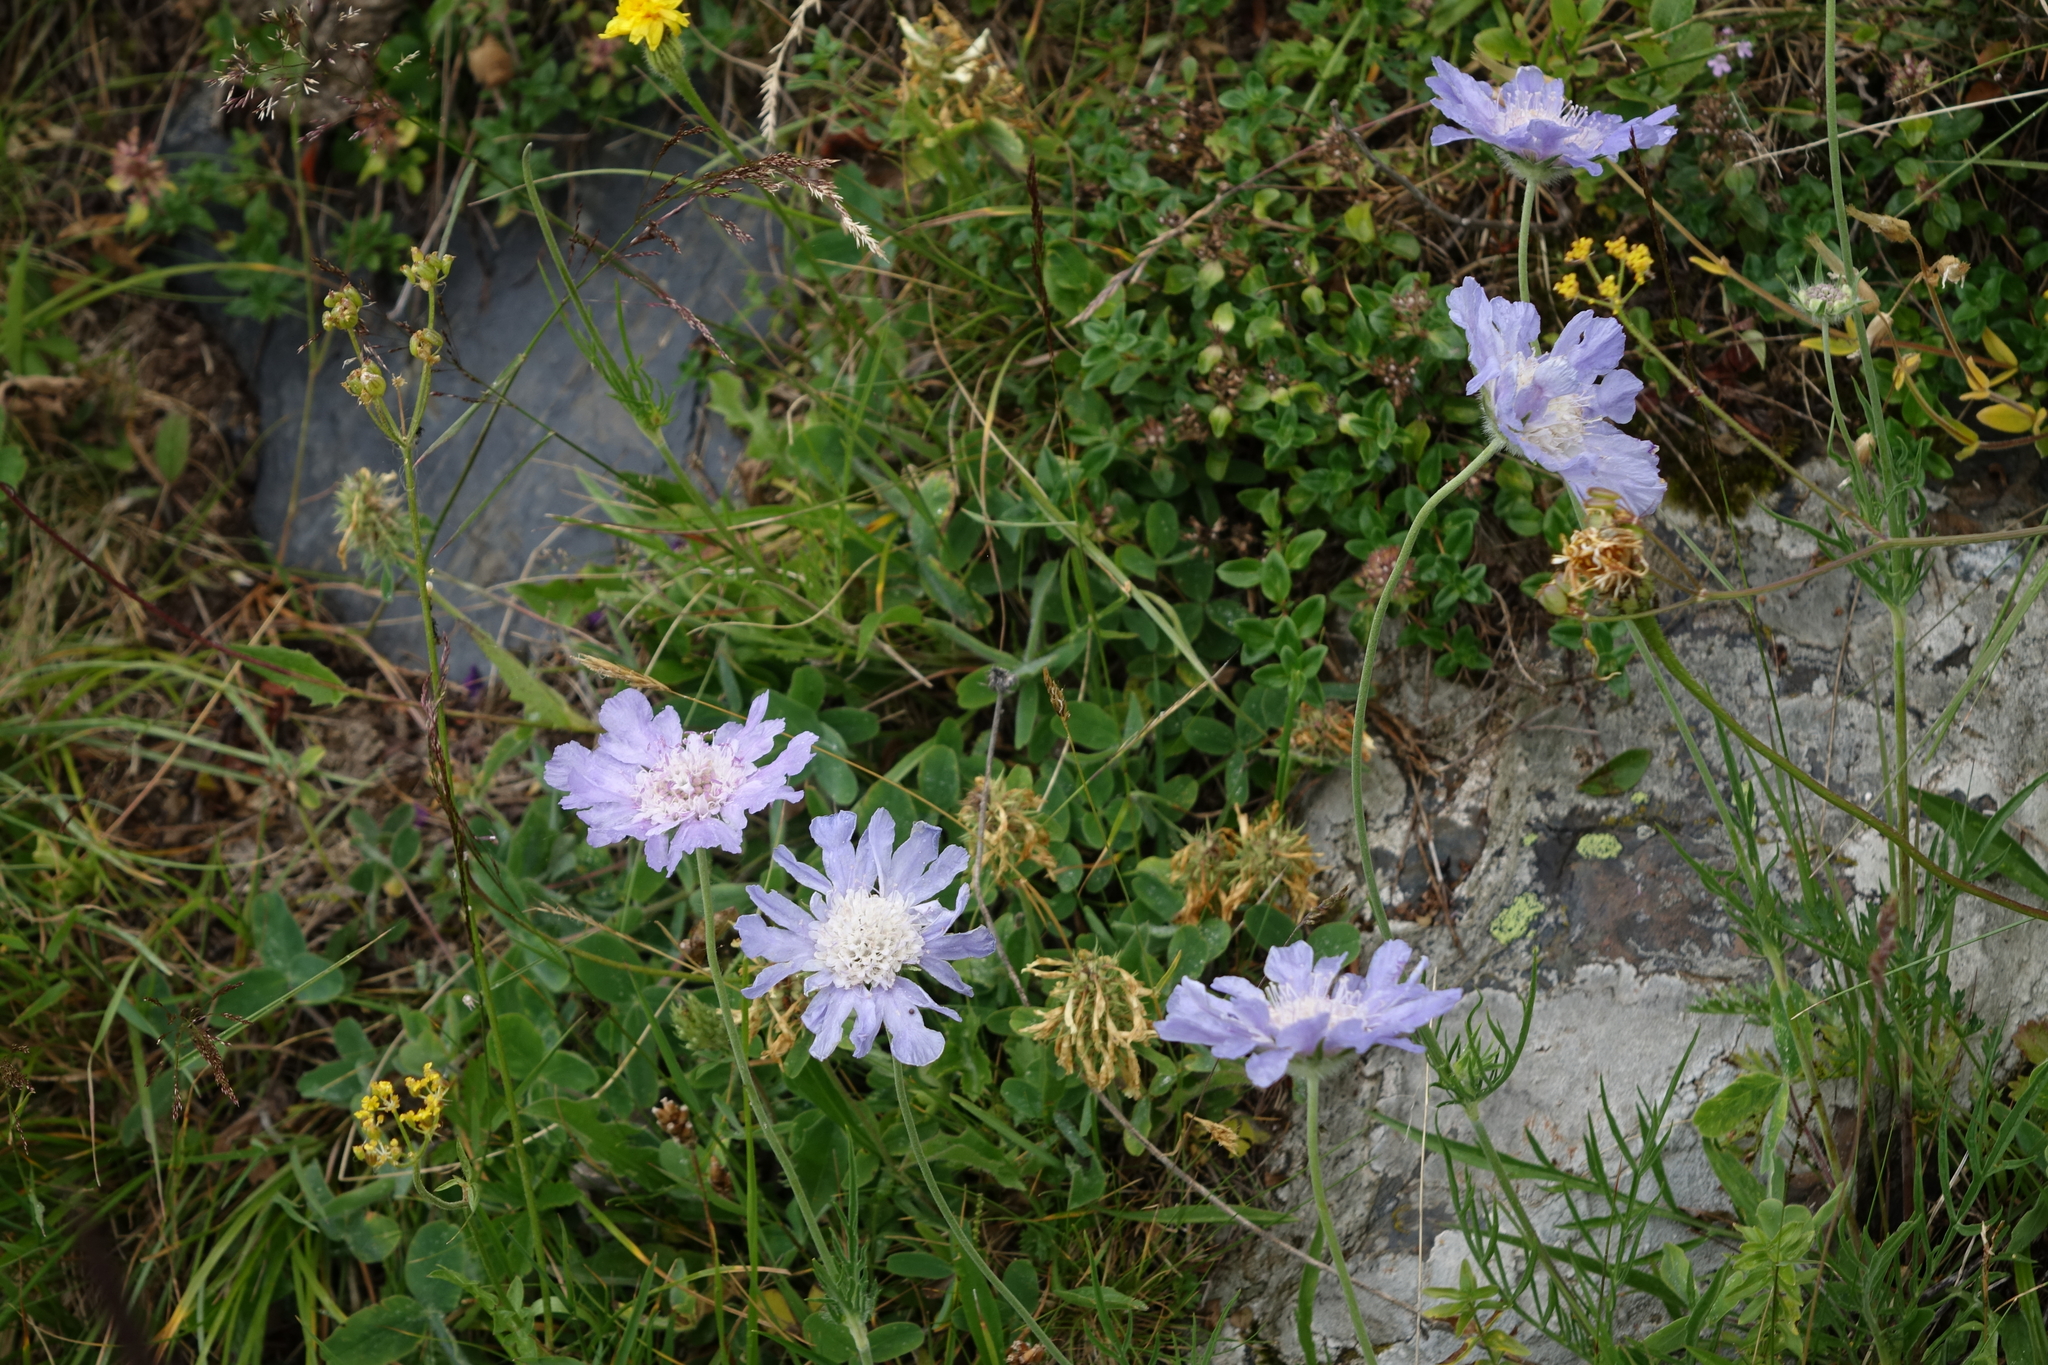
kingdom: Plantae
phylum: Tracheophyta
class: Magnoliopsida
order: Dipsacales
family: Caprifoliaceae
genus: Lomelosia
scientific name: Lomelosia caucasica
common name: Pincushion-flower
